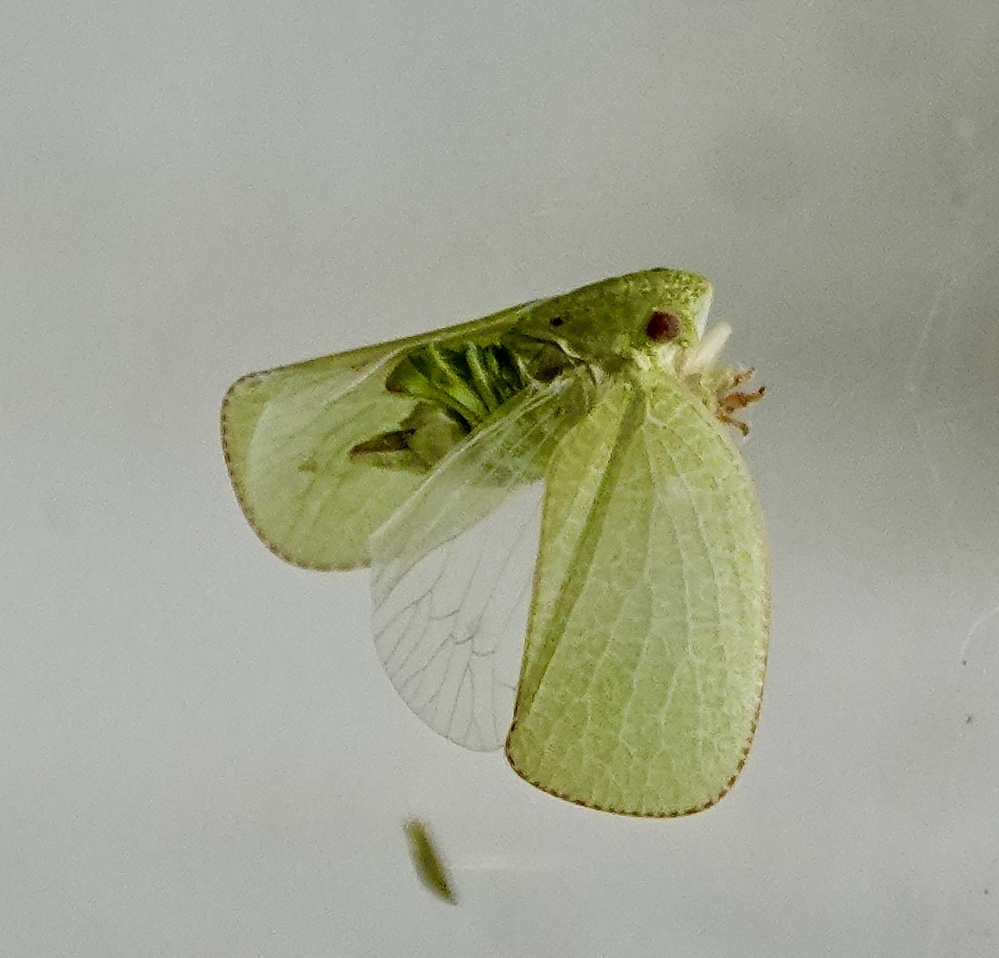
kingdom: Animalia
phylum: Arthropoda
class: Insecta
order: Hemiptera
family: Acanaloniidae
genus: Acanalonia
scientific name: Acanalonia conica
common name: Green cone-headed planthopper
